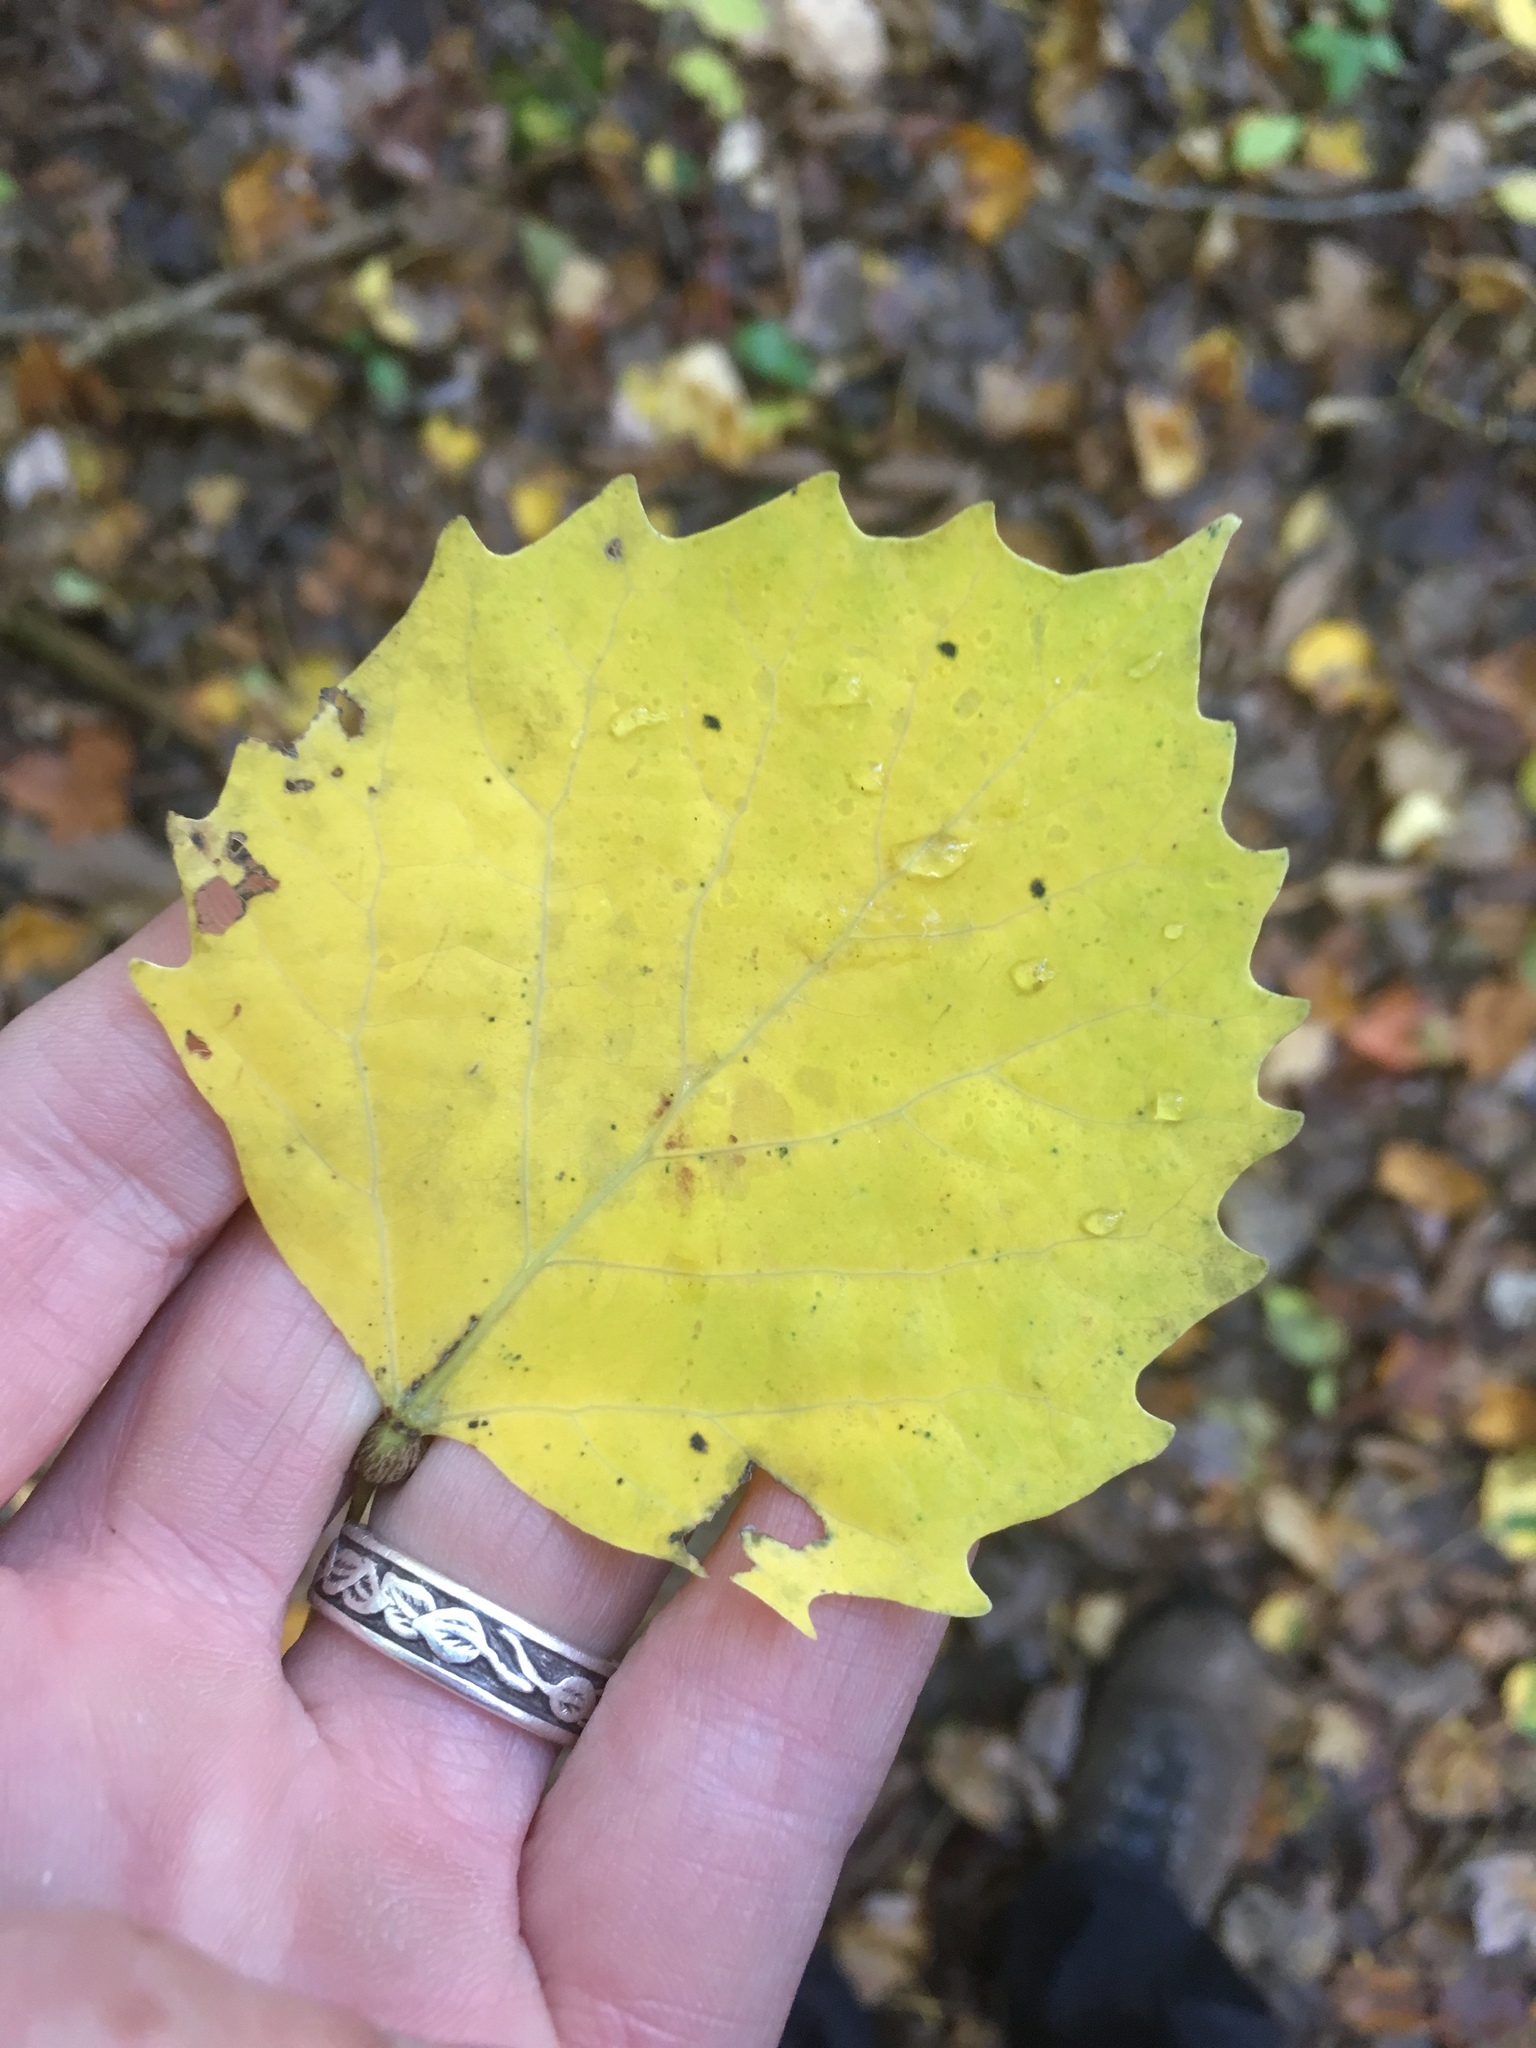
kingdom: Plantae
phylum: Tracheophyta
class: Magnoliopsida
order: Malpighiales
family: Salicaceae
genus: Populus
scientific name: Populus grandidentata
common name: Bigtooth aspen
